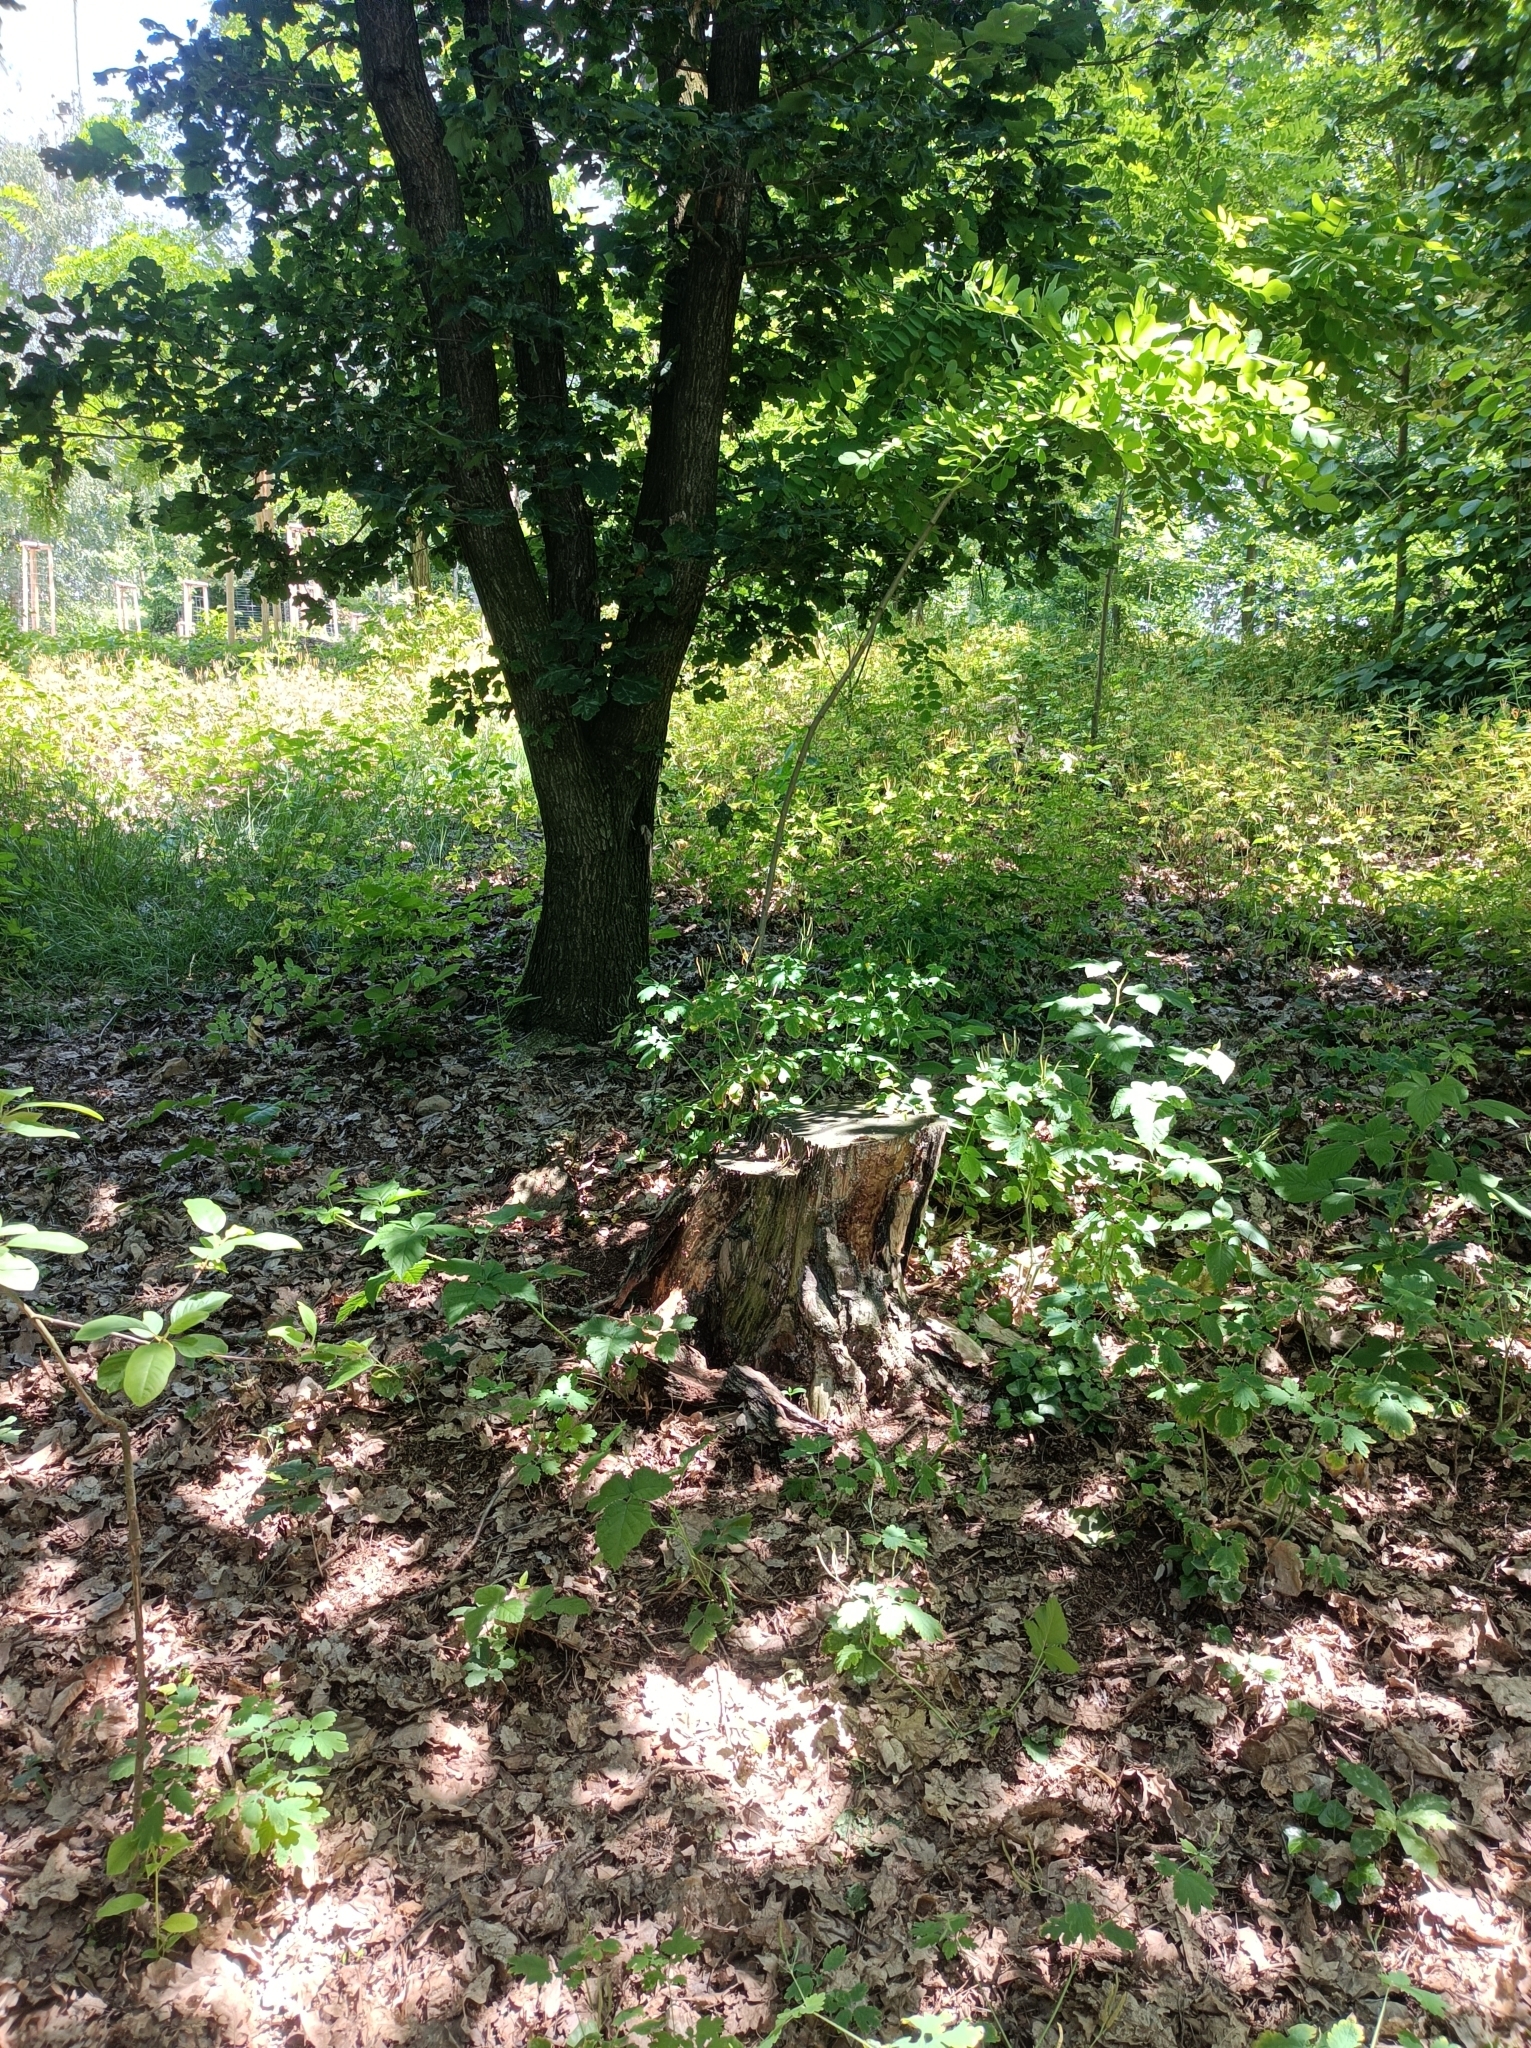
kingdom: Animalia
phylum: Arthropoda
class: Insecta
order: Hymenoptera
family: Formicidae
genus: Lasius
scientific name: Lasius platythorax
